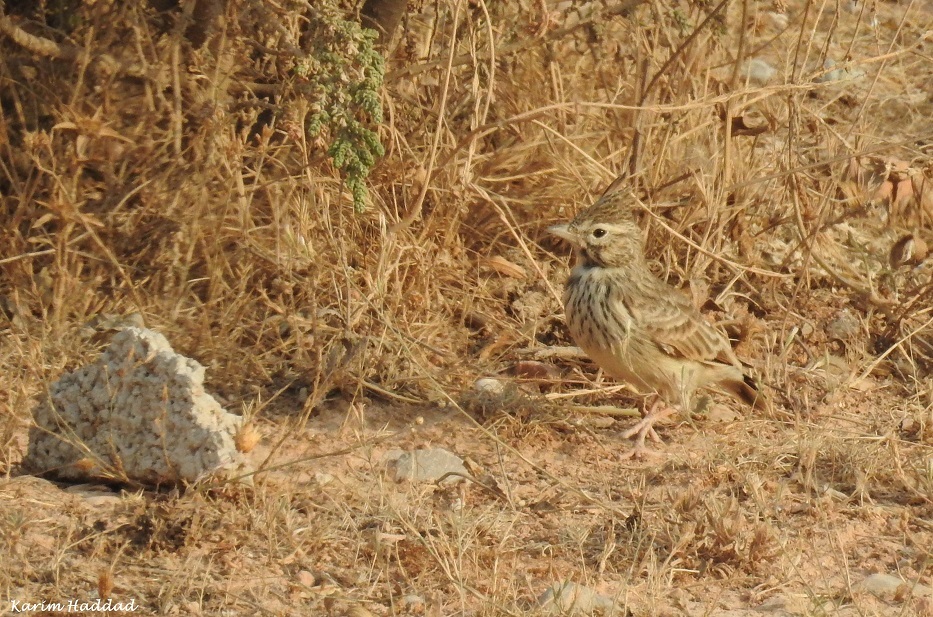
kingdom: Animalia
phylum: Chordata
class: Aves
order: Passeriformes
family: Alaudidae
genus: Galerida
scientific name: Galerida theklae
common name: Thekla lark
